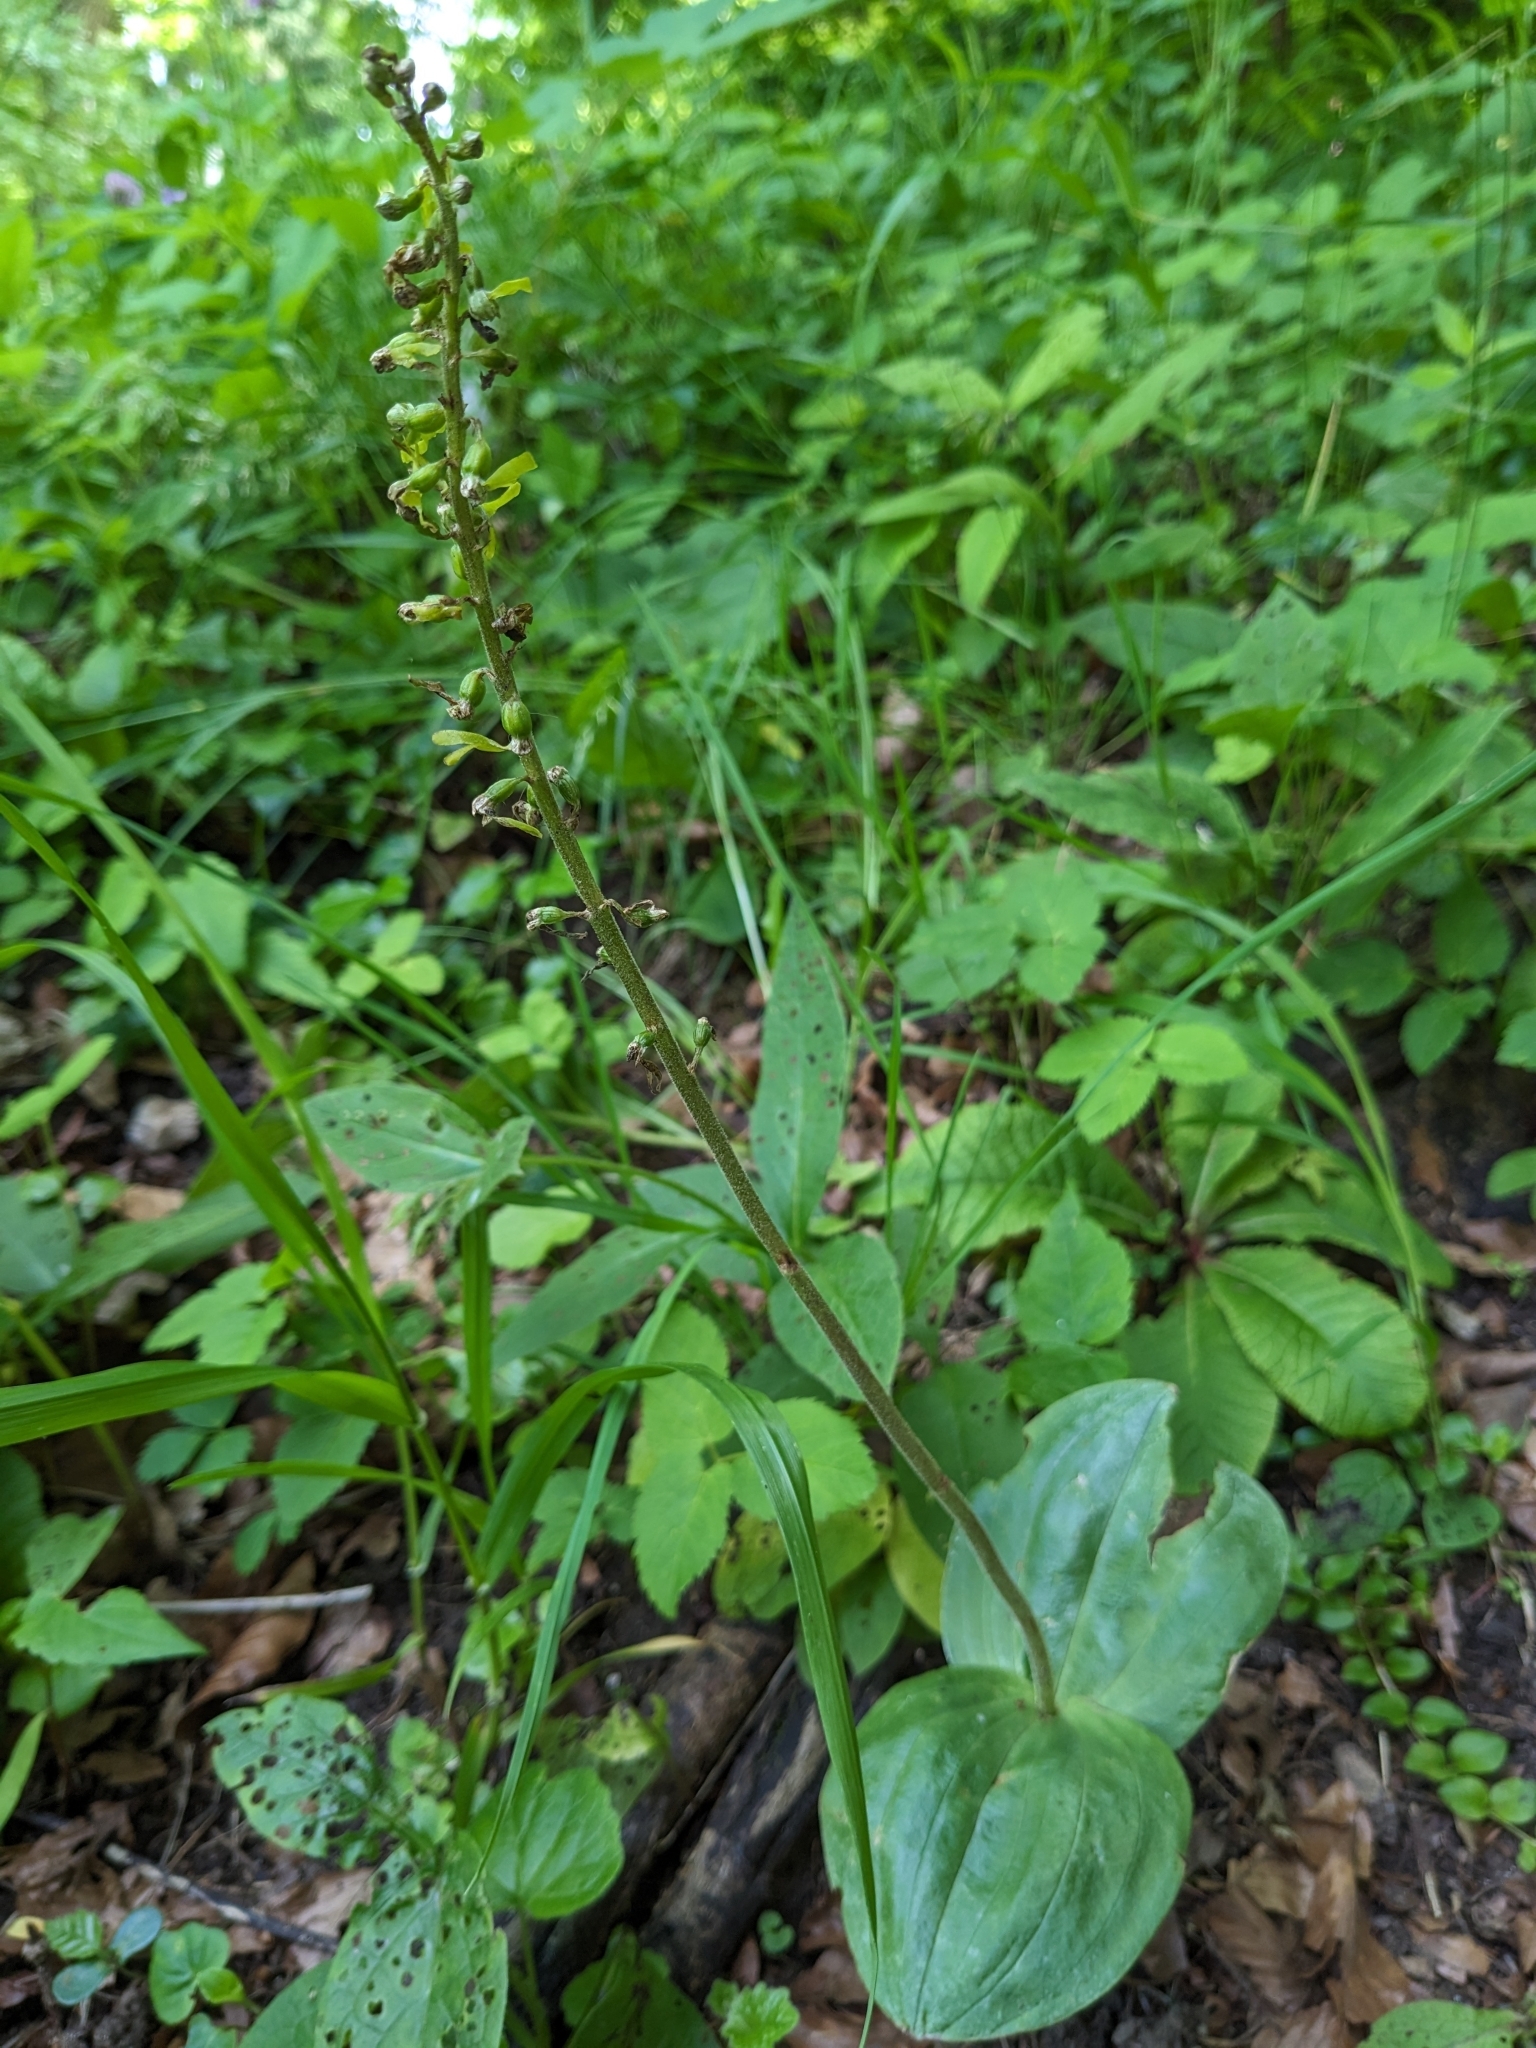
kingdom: Plantae
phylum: Tracheophyta
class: Liliopsida
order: Asparagales
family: Orchidaceae
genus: Neottia
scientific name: Neottia ovata
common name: Common twayblade
